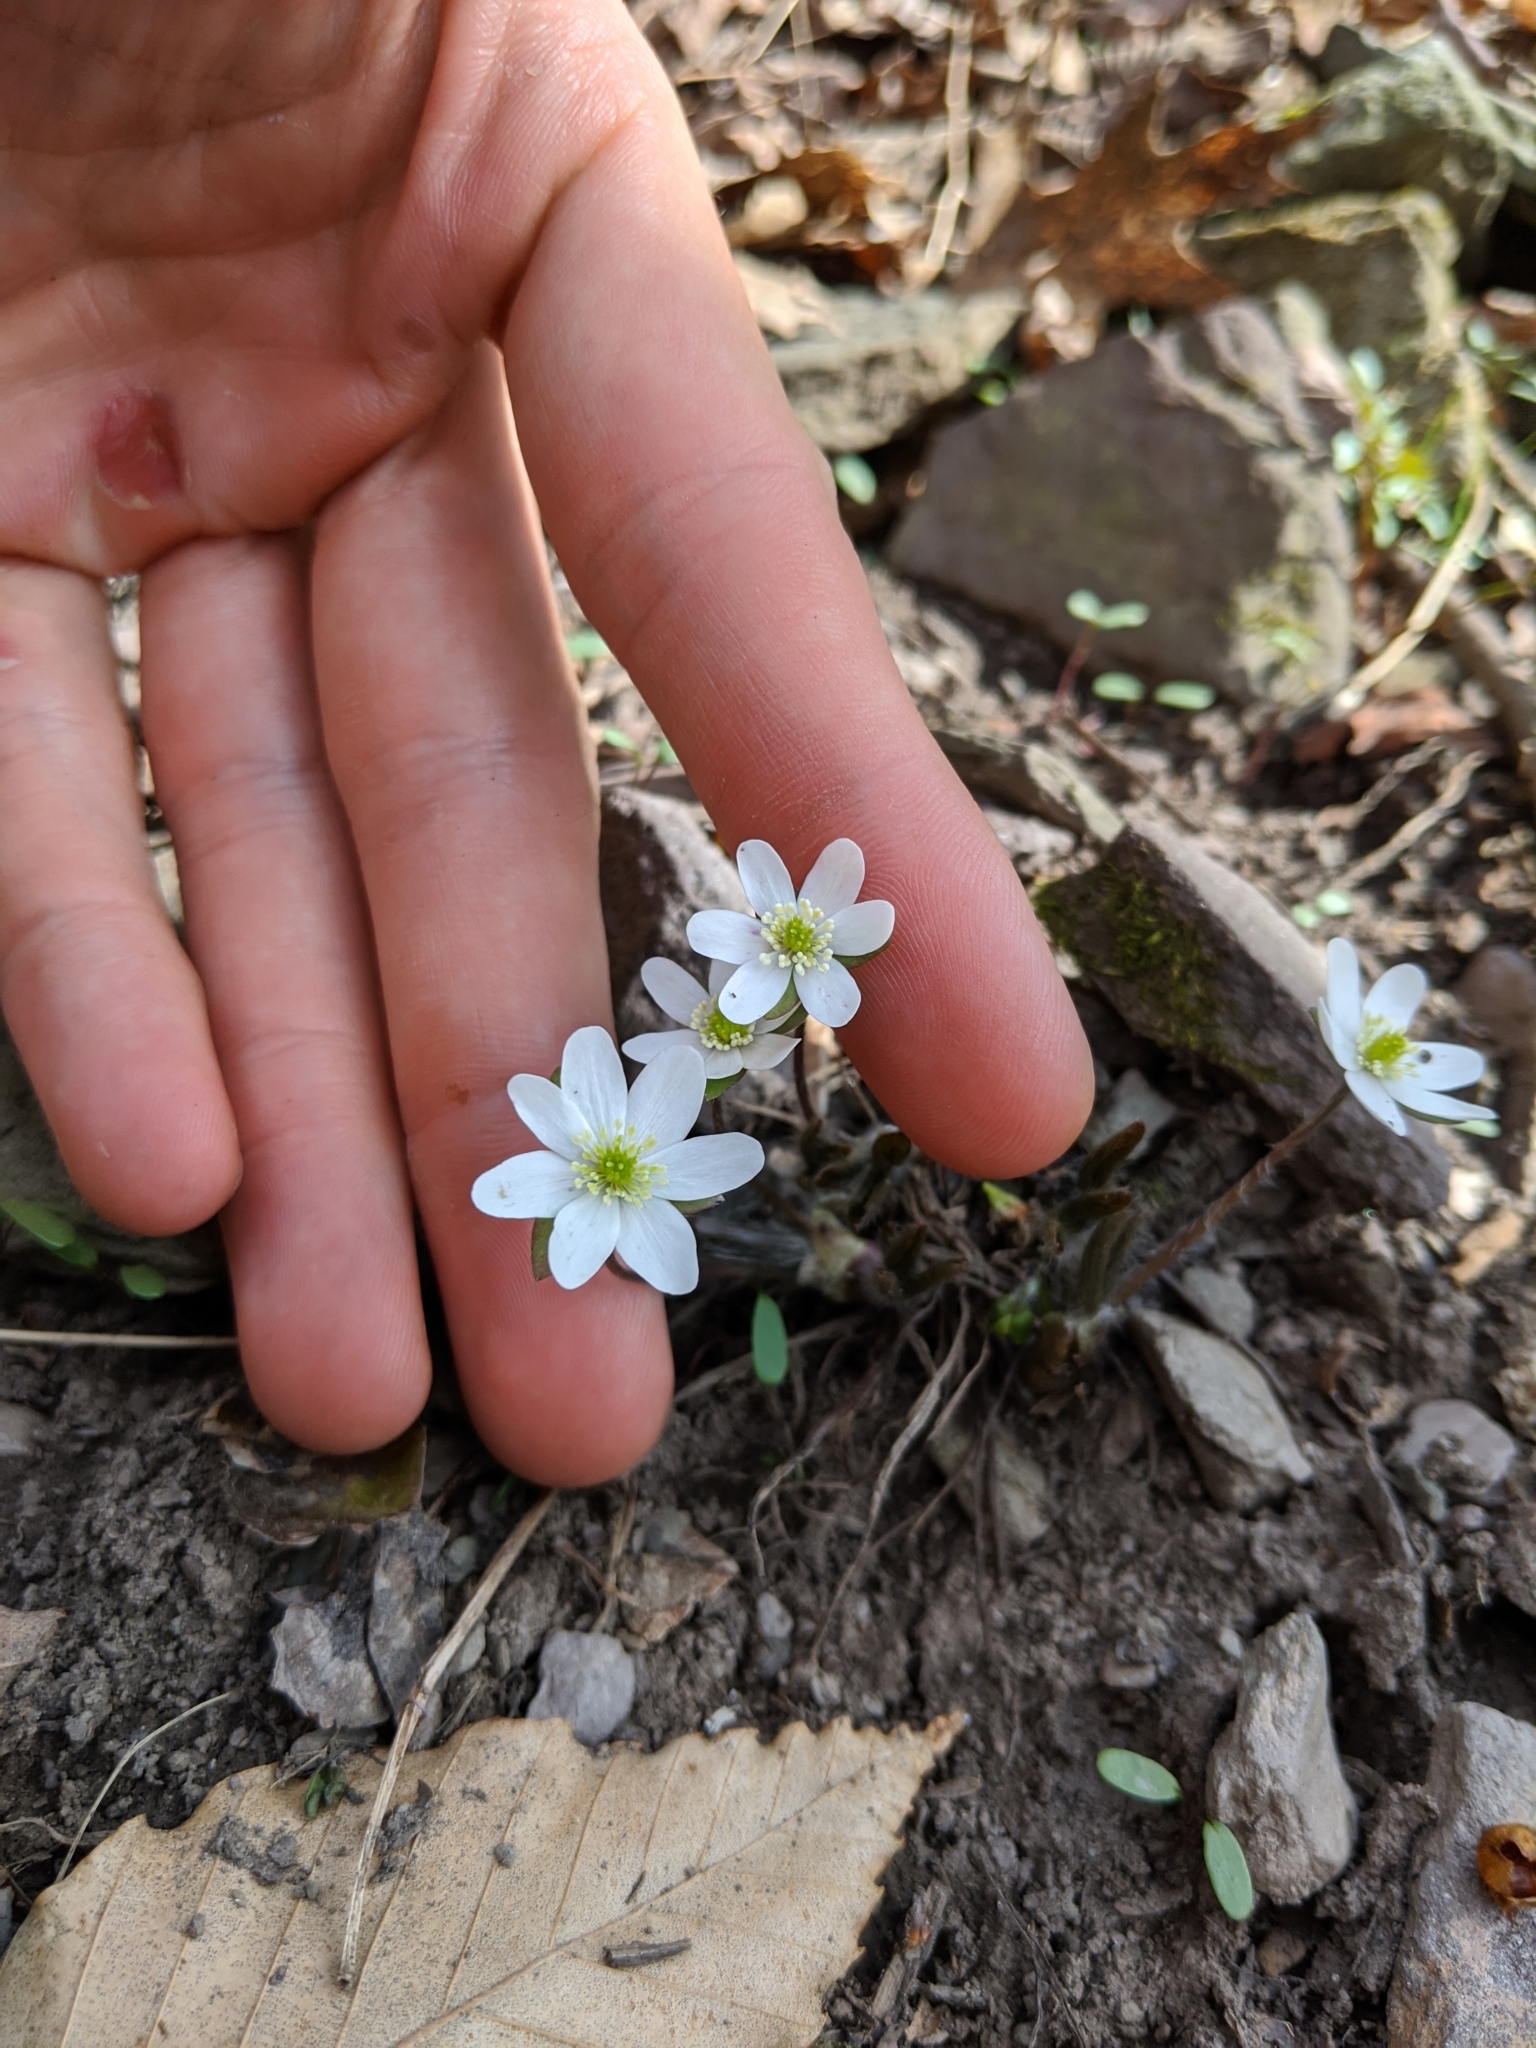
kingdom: Plantae
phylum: Tracheophyta
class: Magnoliopsida
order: Ranunculales
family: Ranunculaceae
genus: Hepatica
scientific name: Hepatica acutiloba
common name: Sharp-lobed hepatica
